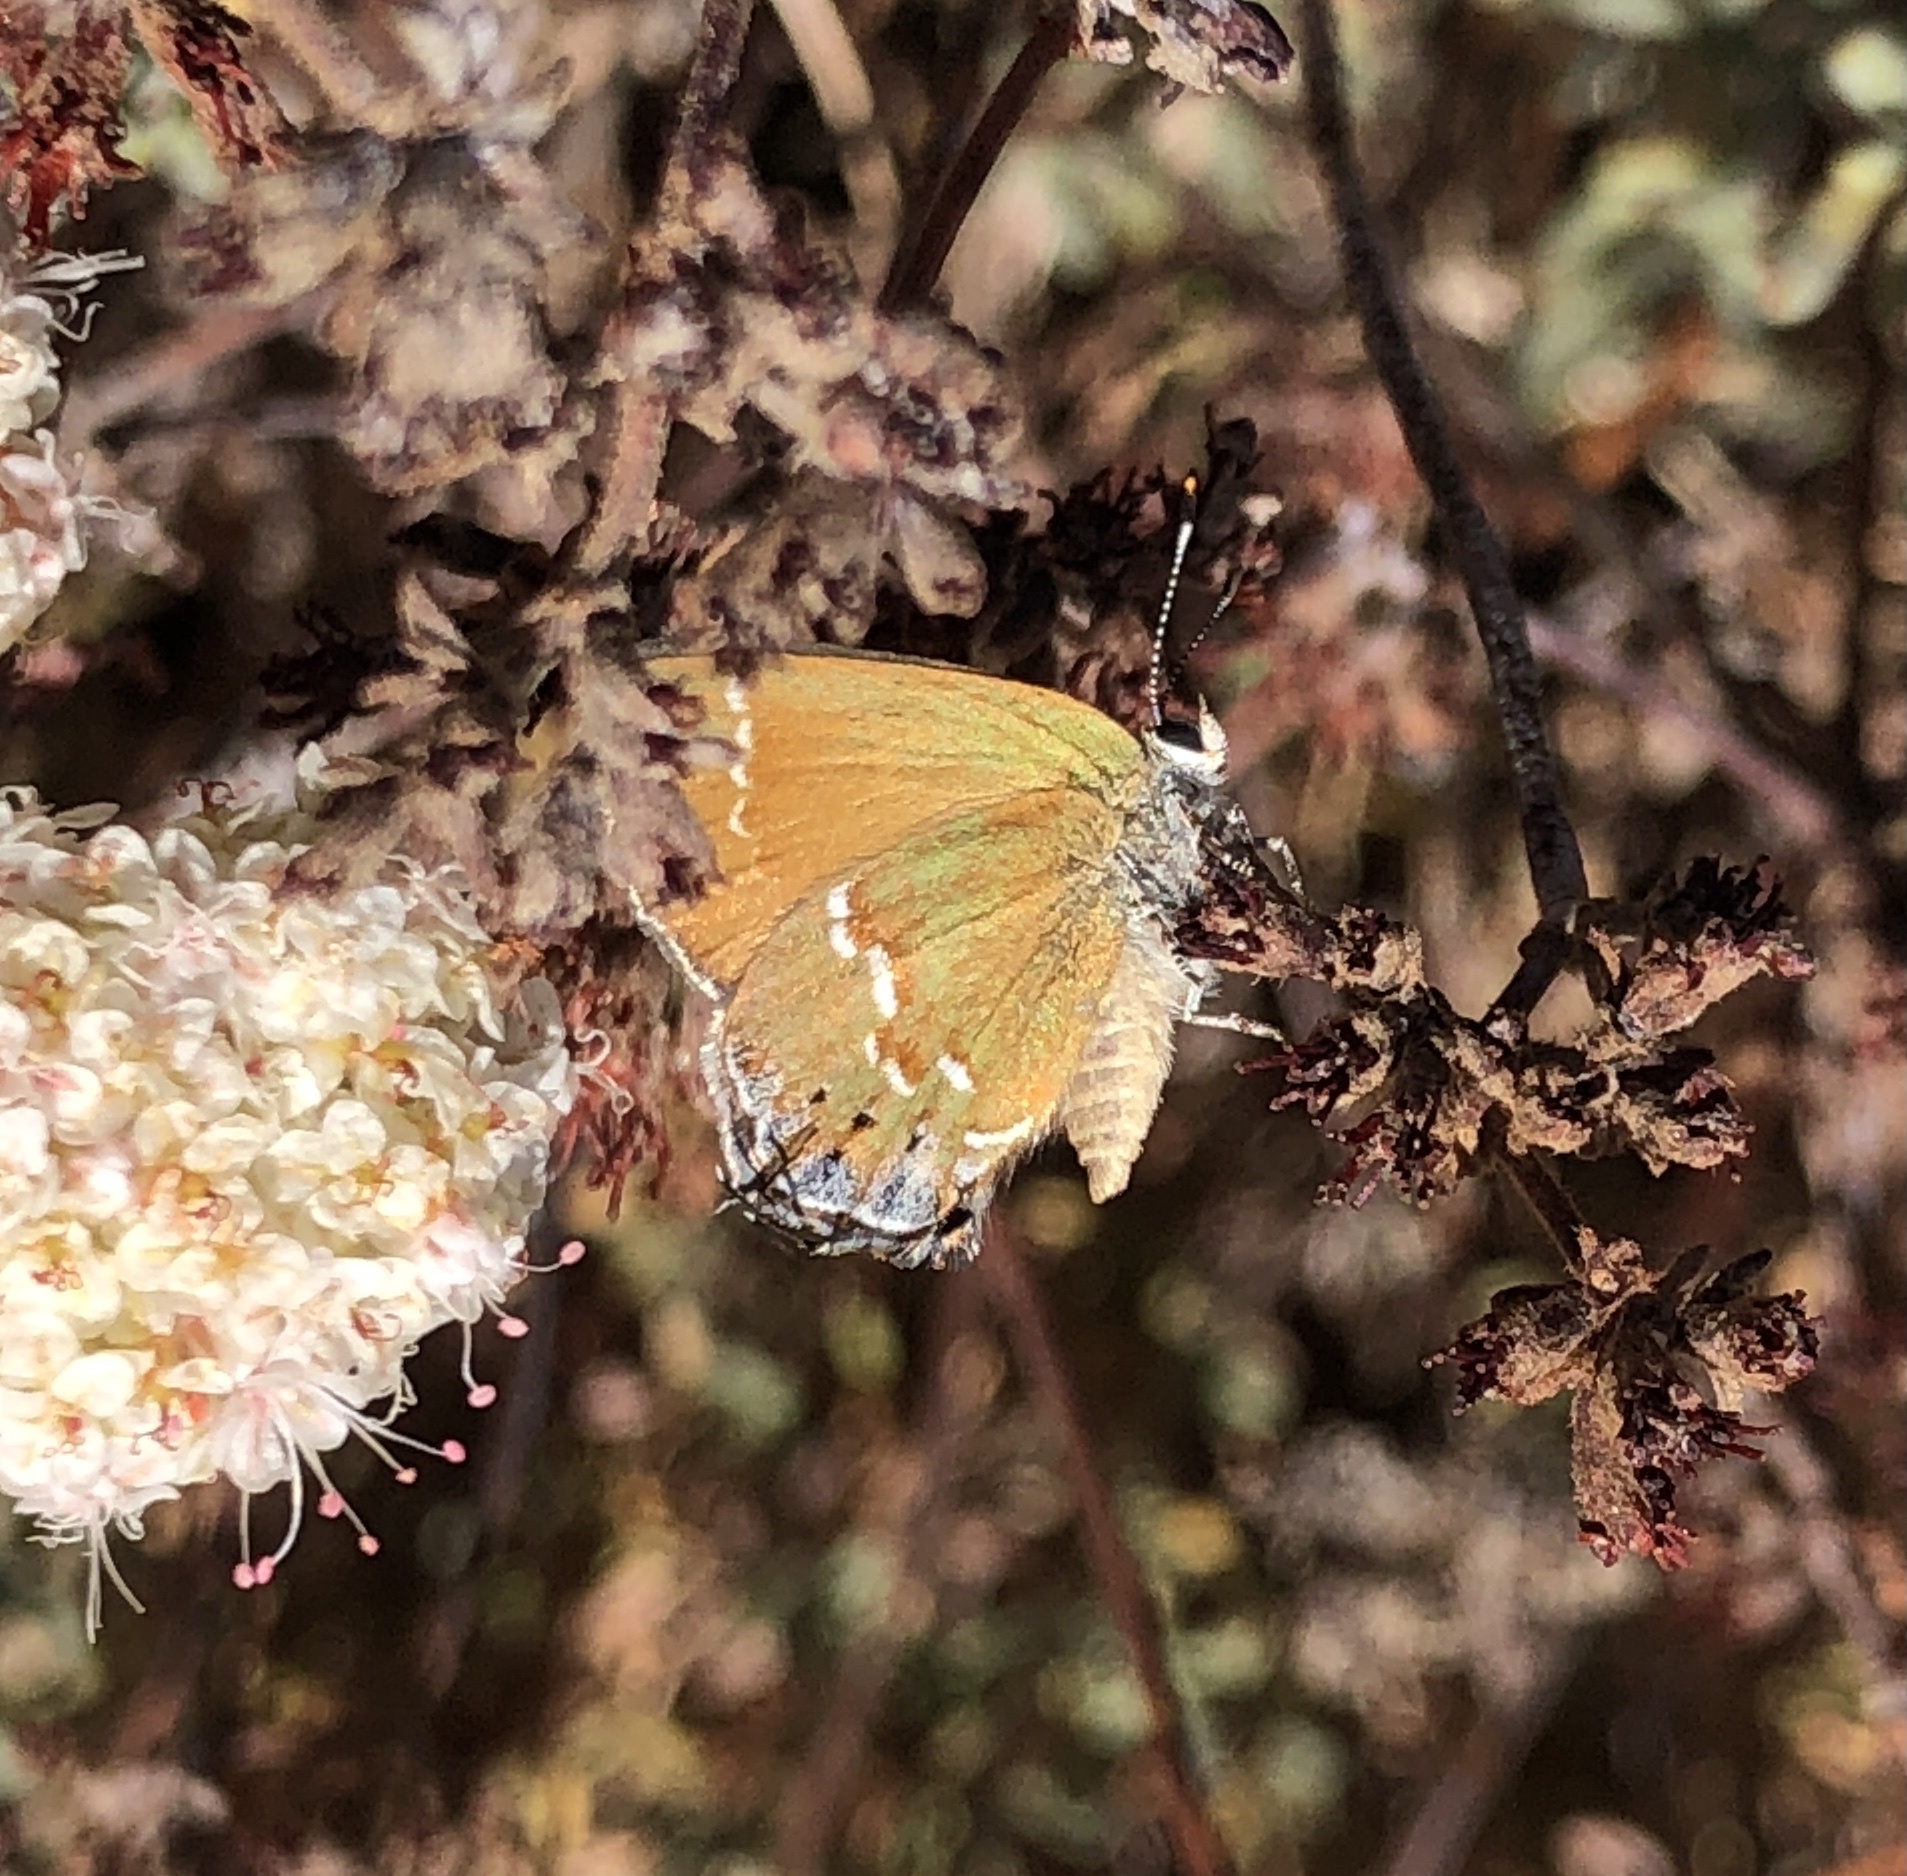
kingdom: Animalia
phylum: Arthropoda
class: Insecta
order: Lepidoptera
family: Lycaenidae
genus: Mitoura
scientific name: Mitoura gryneus
